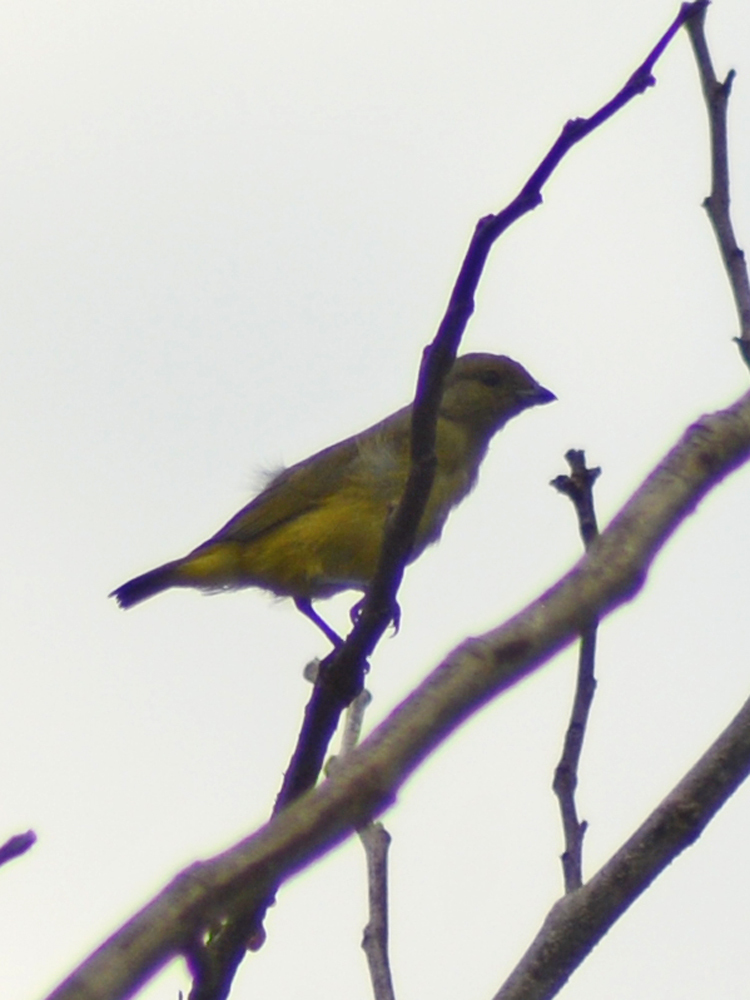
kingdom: Animalia
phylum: Chordata
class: Aves
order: Passeriformes
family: Fringillidae
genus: Euphonia
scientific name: Euphonia affinis
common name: Scrub euphonia
